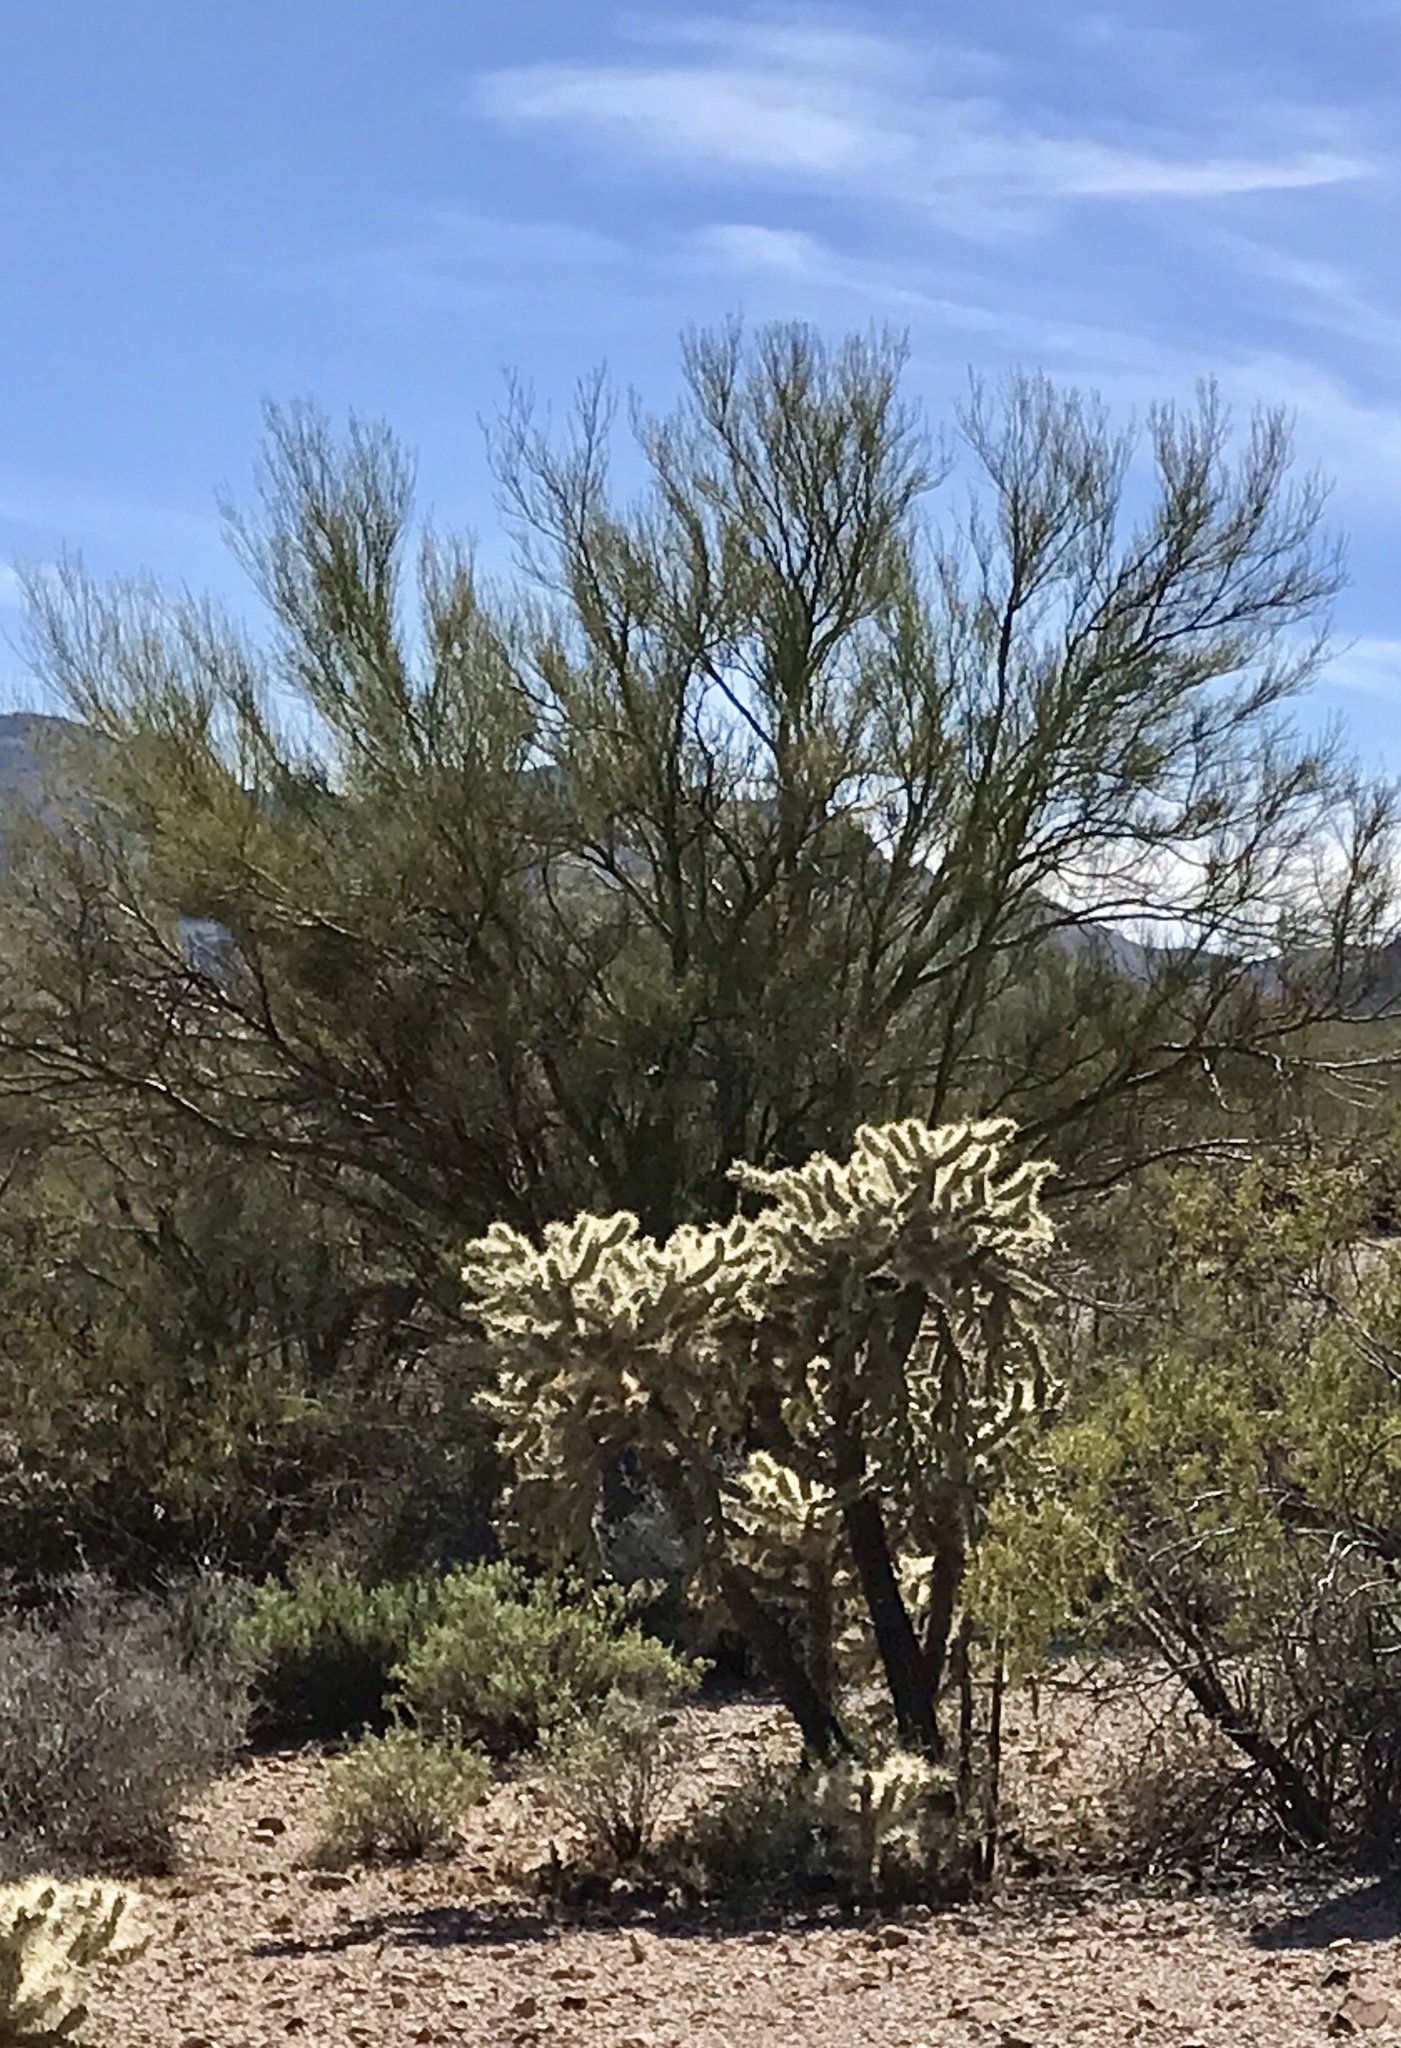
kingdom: Plantae
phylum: Tracheophyta
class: Magnoliopsida
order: Caryophyllales
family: Cactaceae
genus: Cylindropuntia
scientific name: Cylindropuntia fulgida
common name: Jumping cholla
